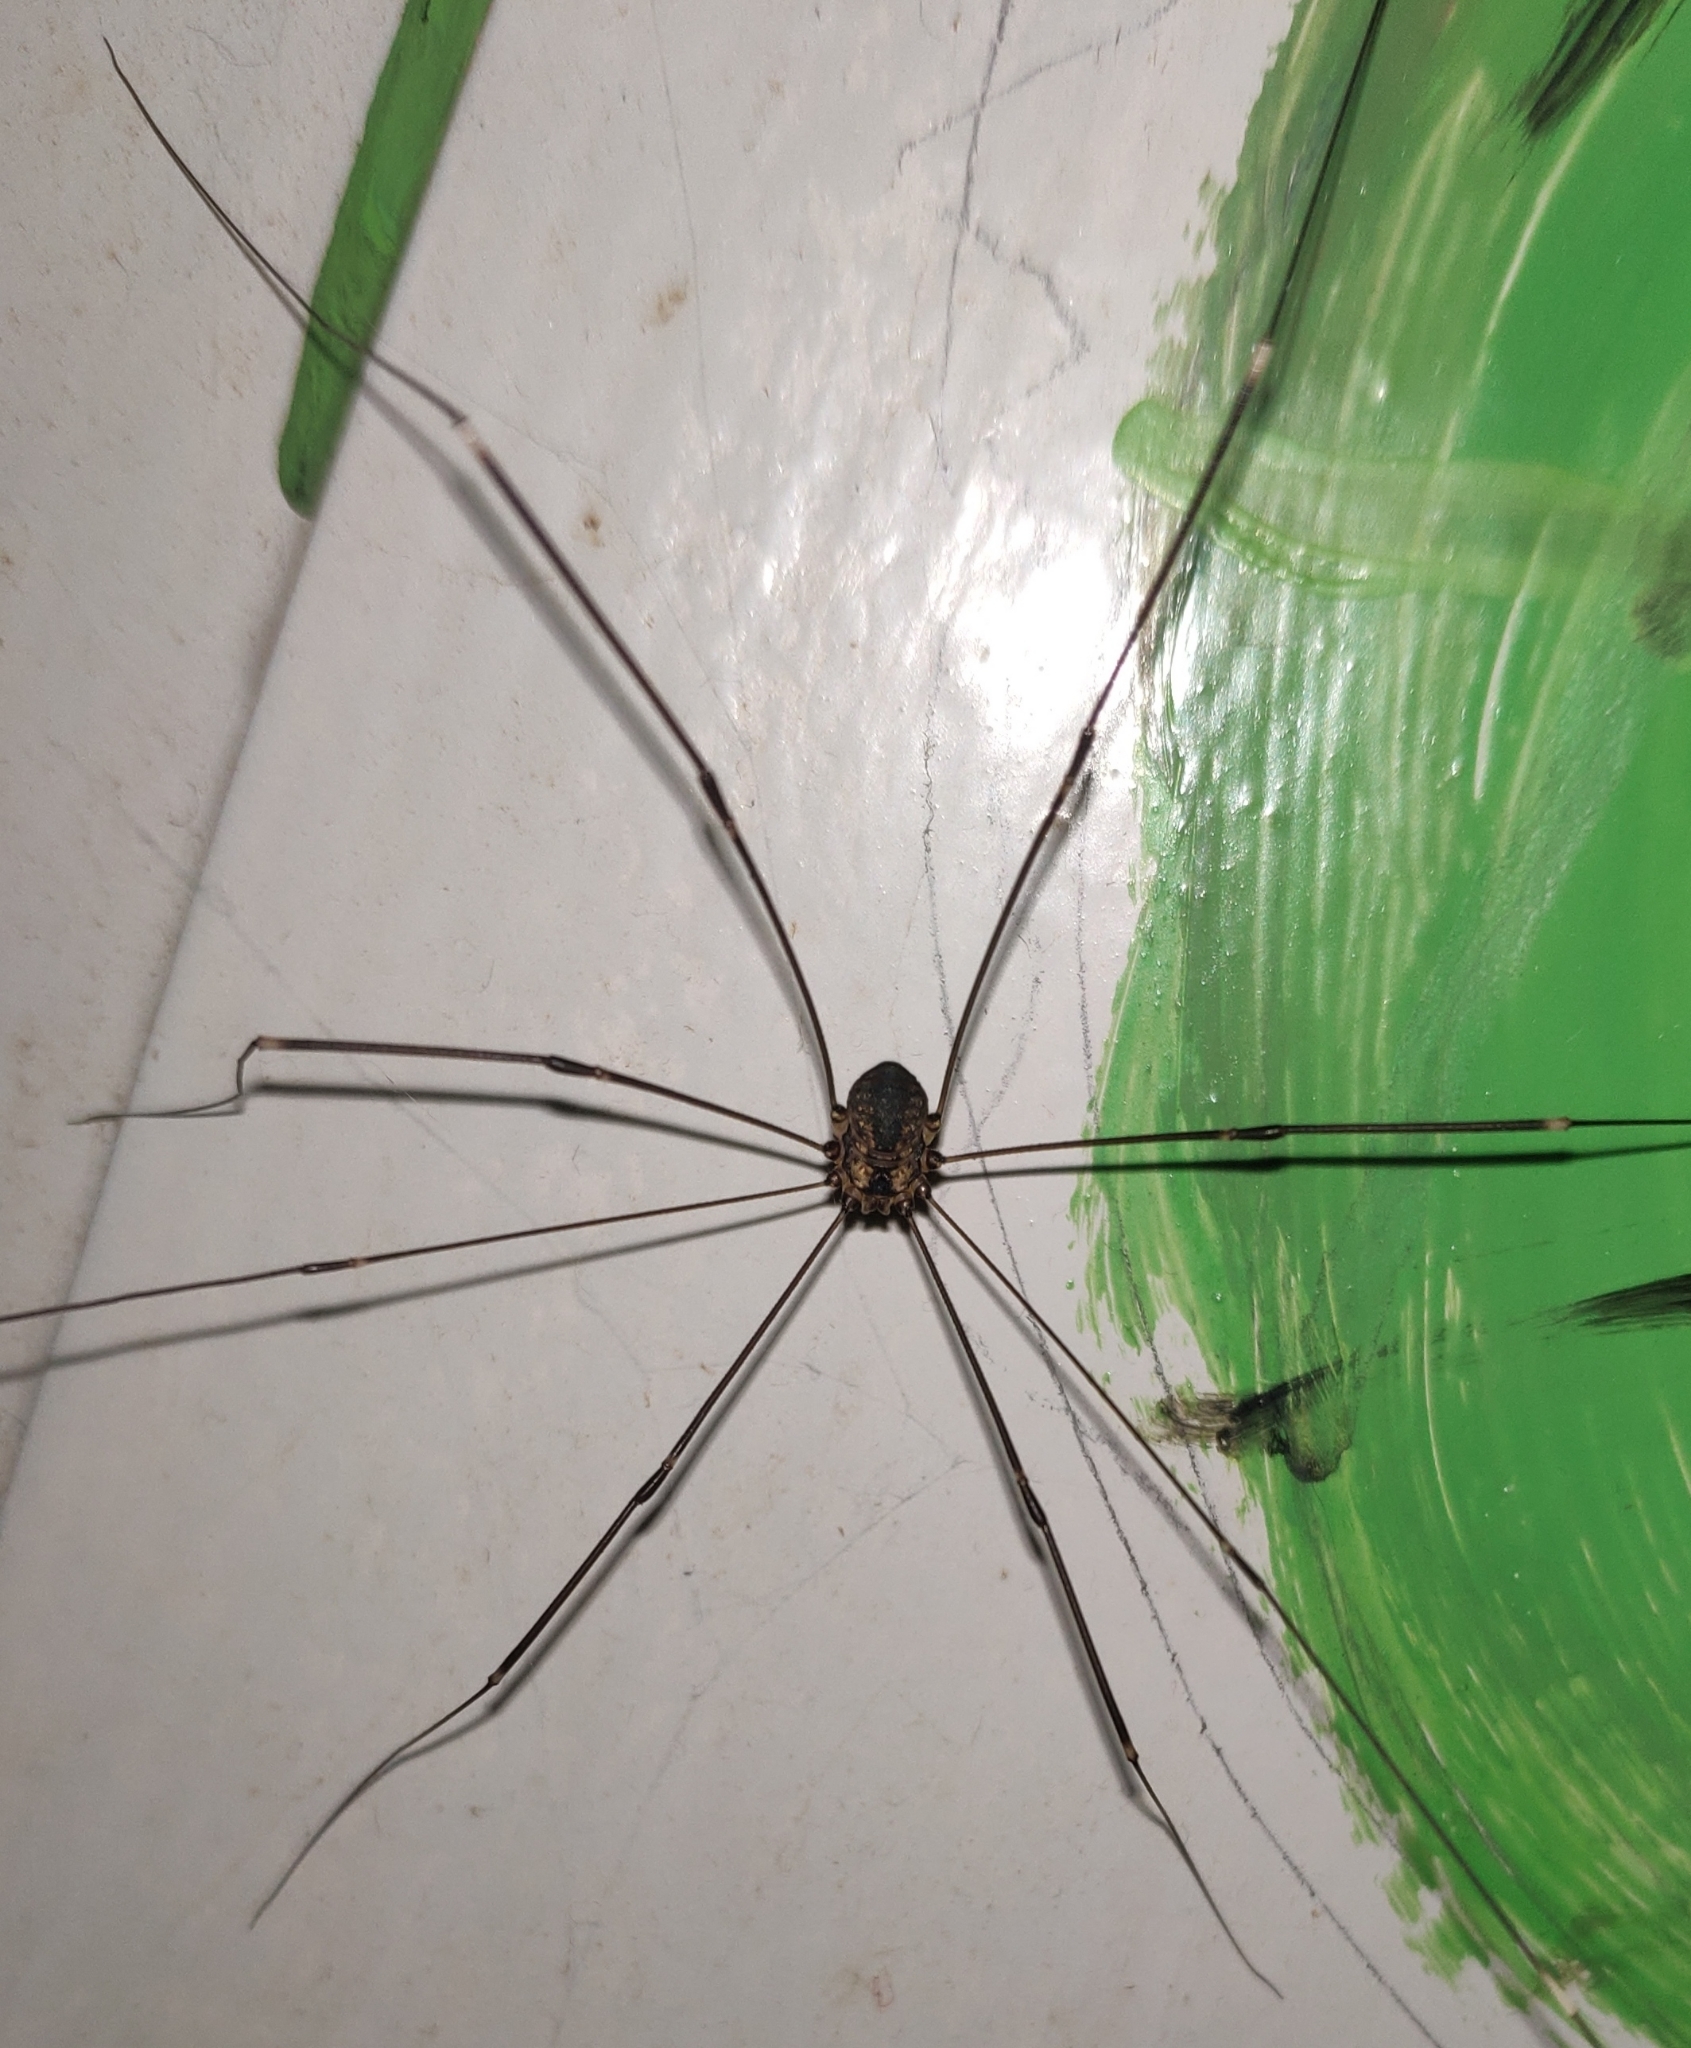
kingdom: Animalia
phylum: Arthropoda
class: Arachnida
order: Opiliones
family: Sclerosomatidae
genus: Leiobunum
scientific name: Leiobunum
